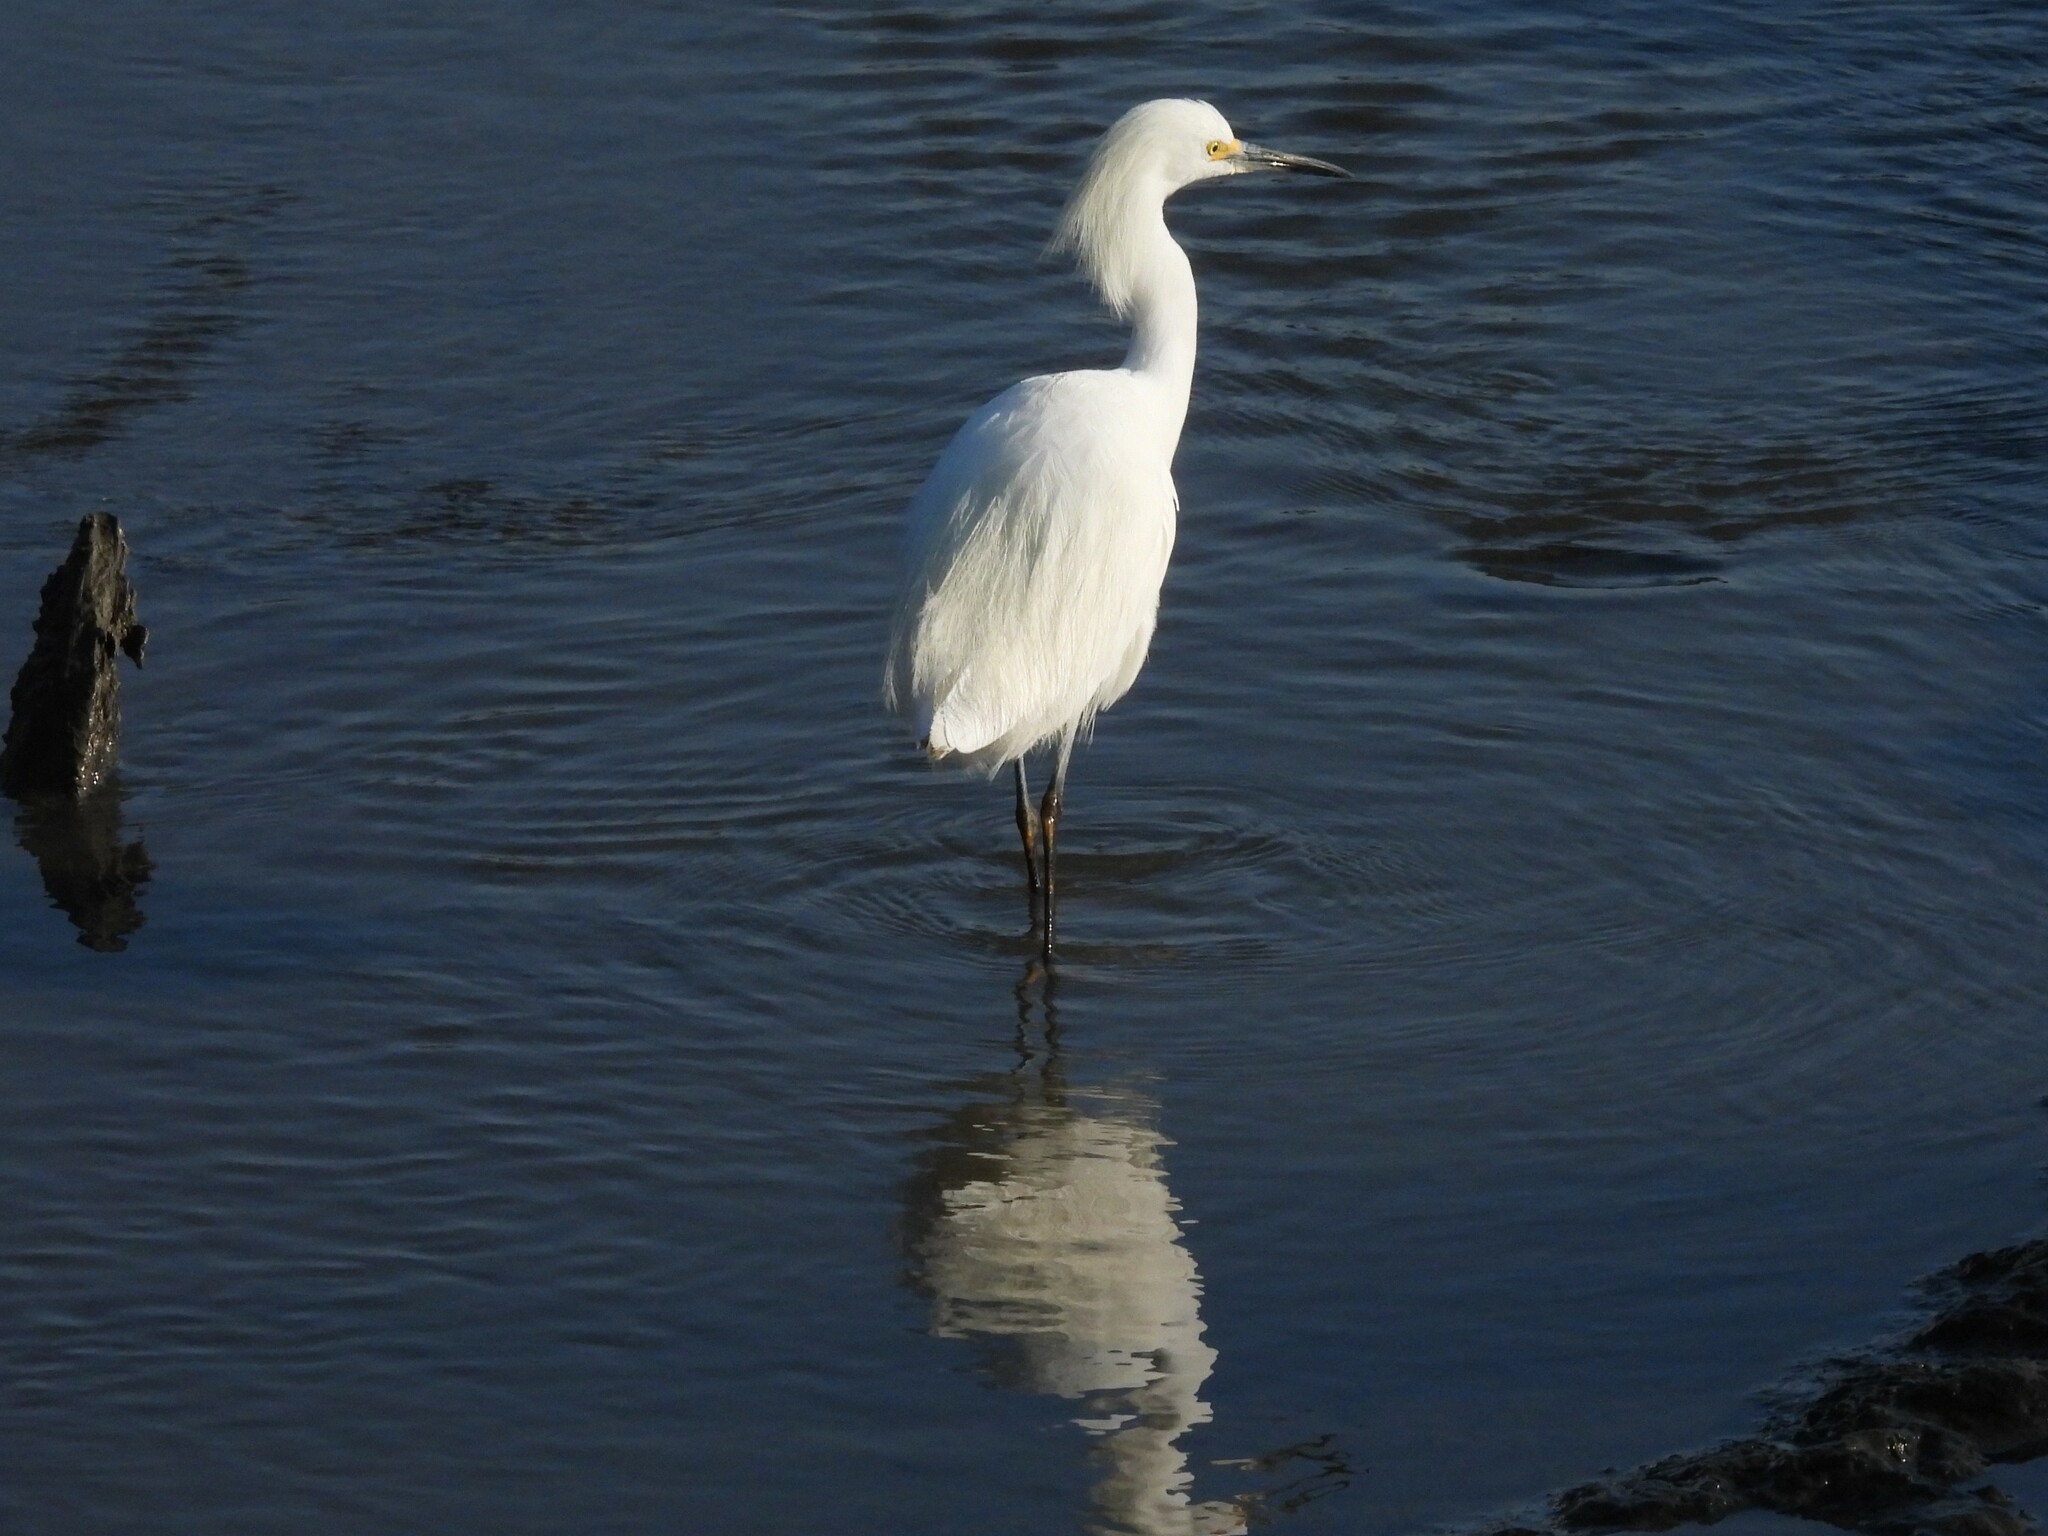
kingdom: Animalia
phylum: Chordata
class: Aves
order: Pelecaniformes
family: Ardeidae
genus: Egretta
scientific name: Egretta thula
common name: Snowy egret
